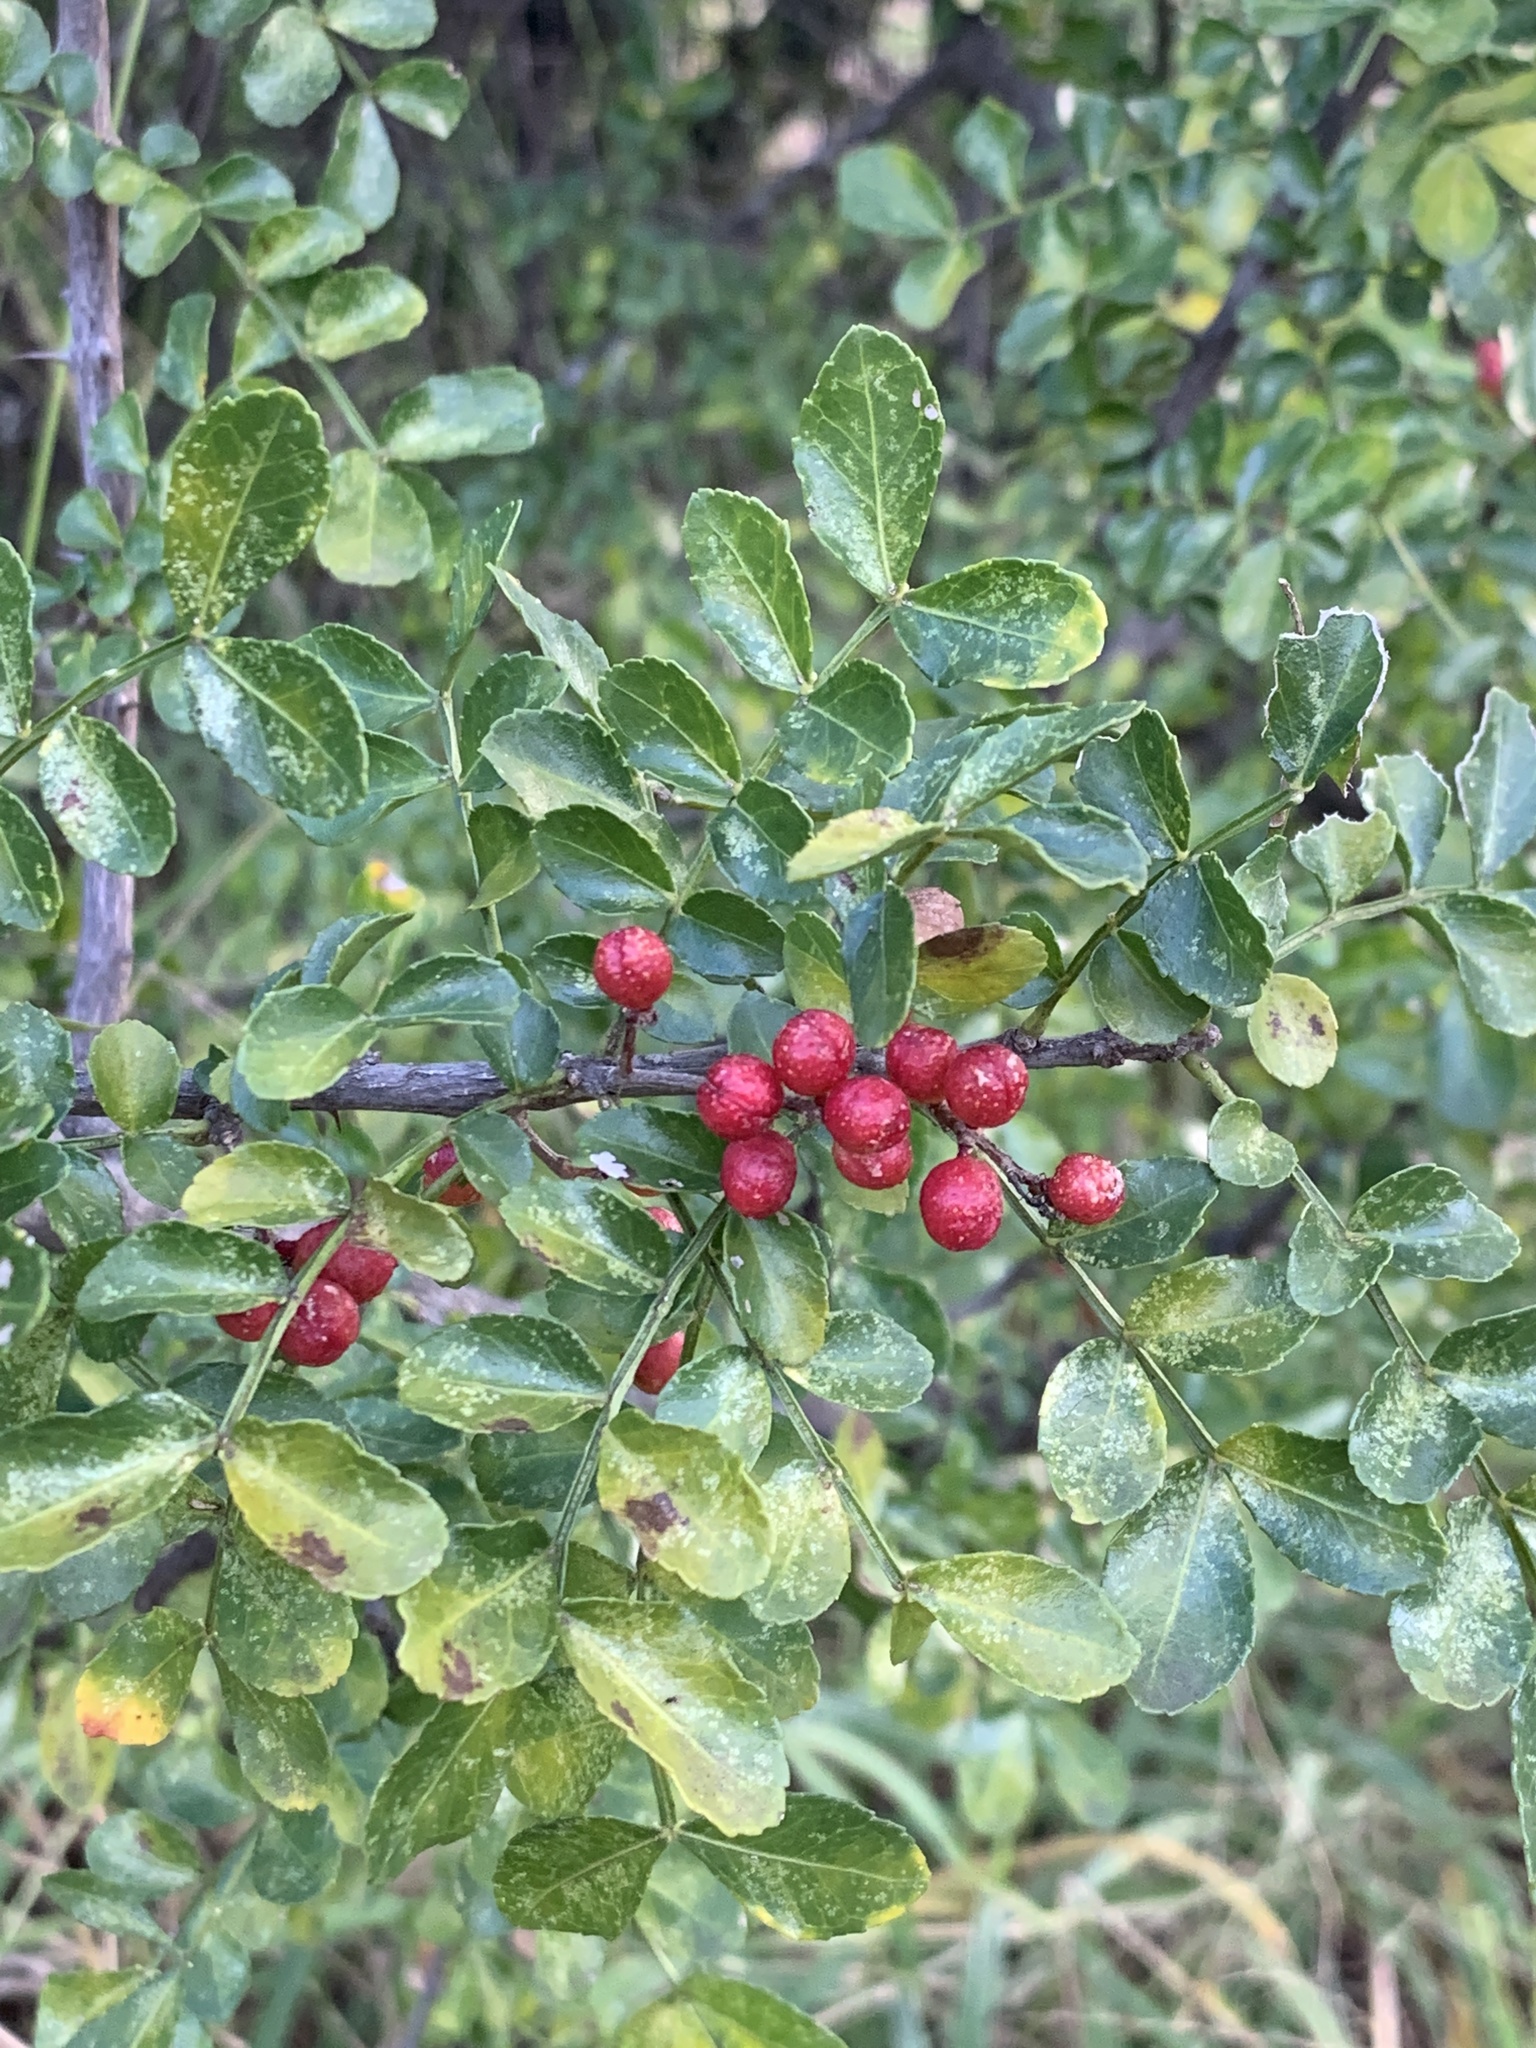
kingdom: Plantae
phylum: Tracheophyta
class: Magnoliopsida
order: Sapindales
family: Rutaceae
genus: Zanthoxylum
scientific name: Zanthoxylum capense
